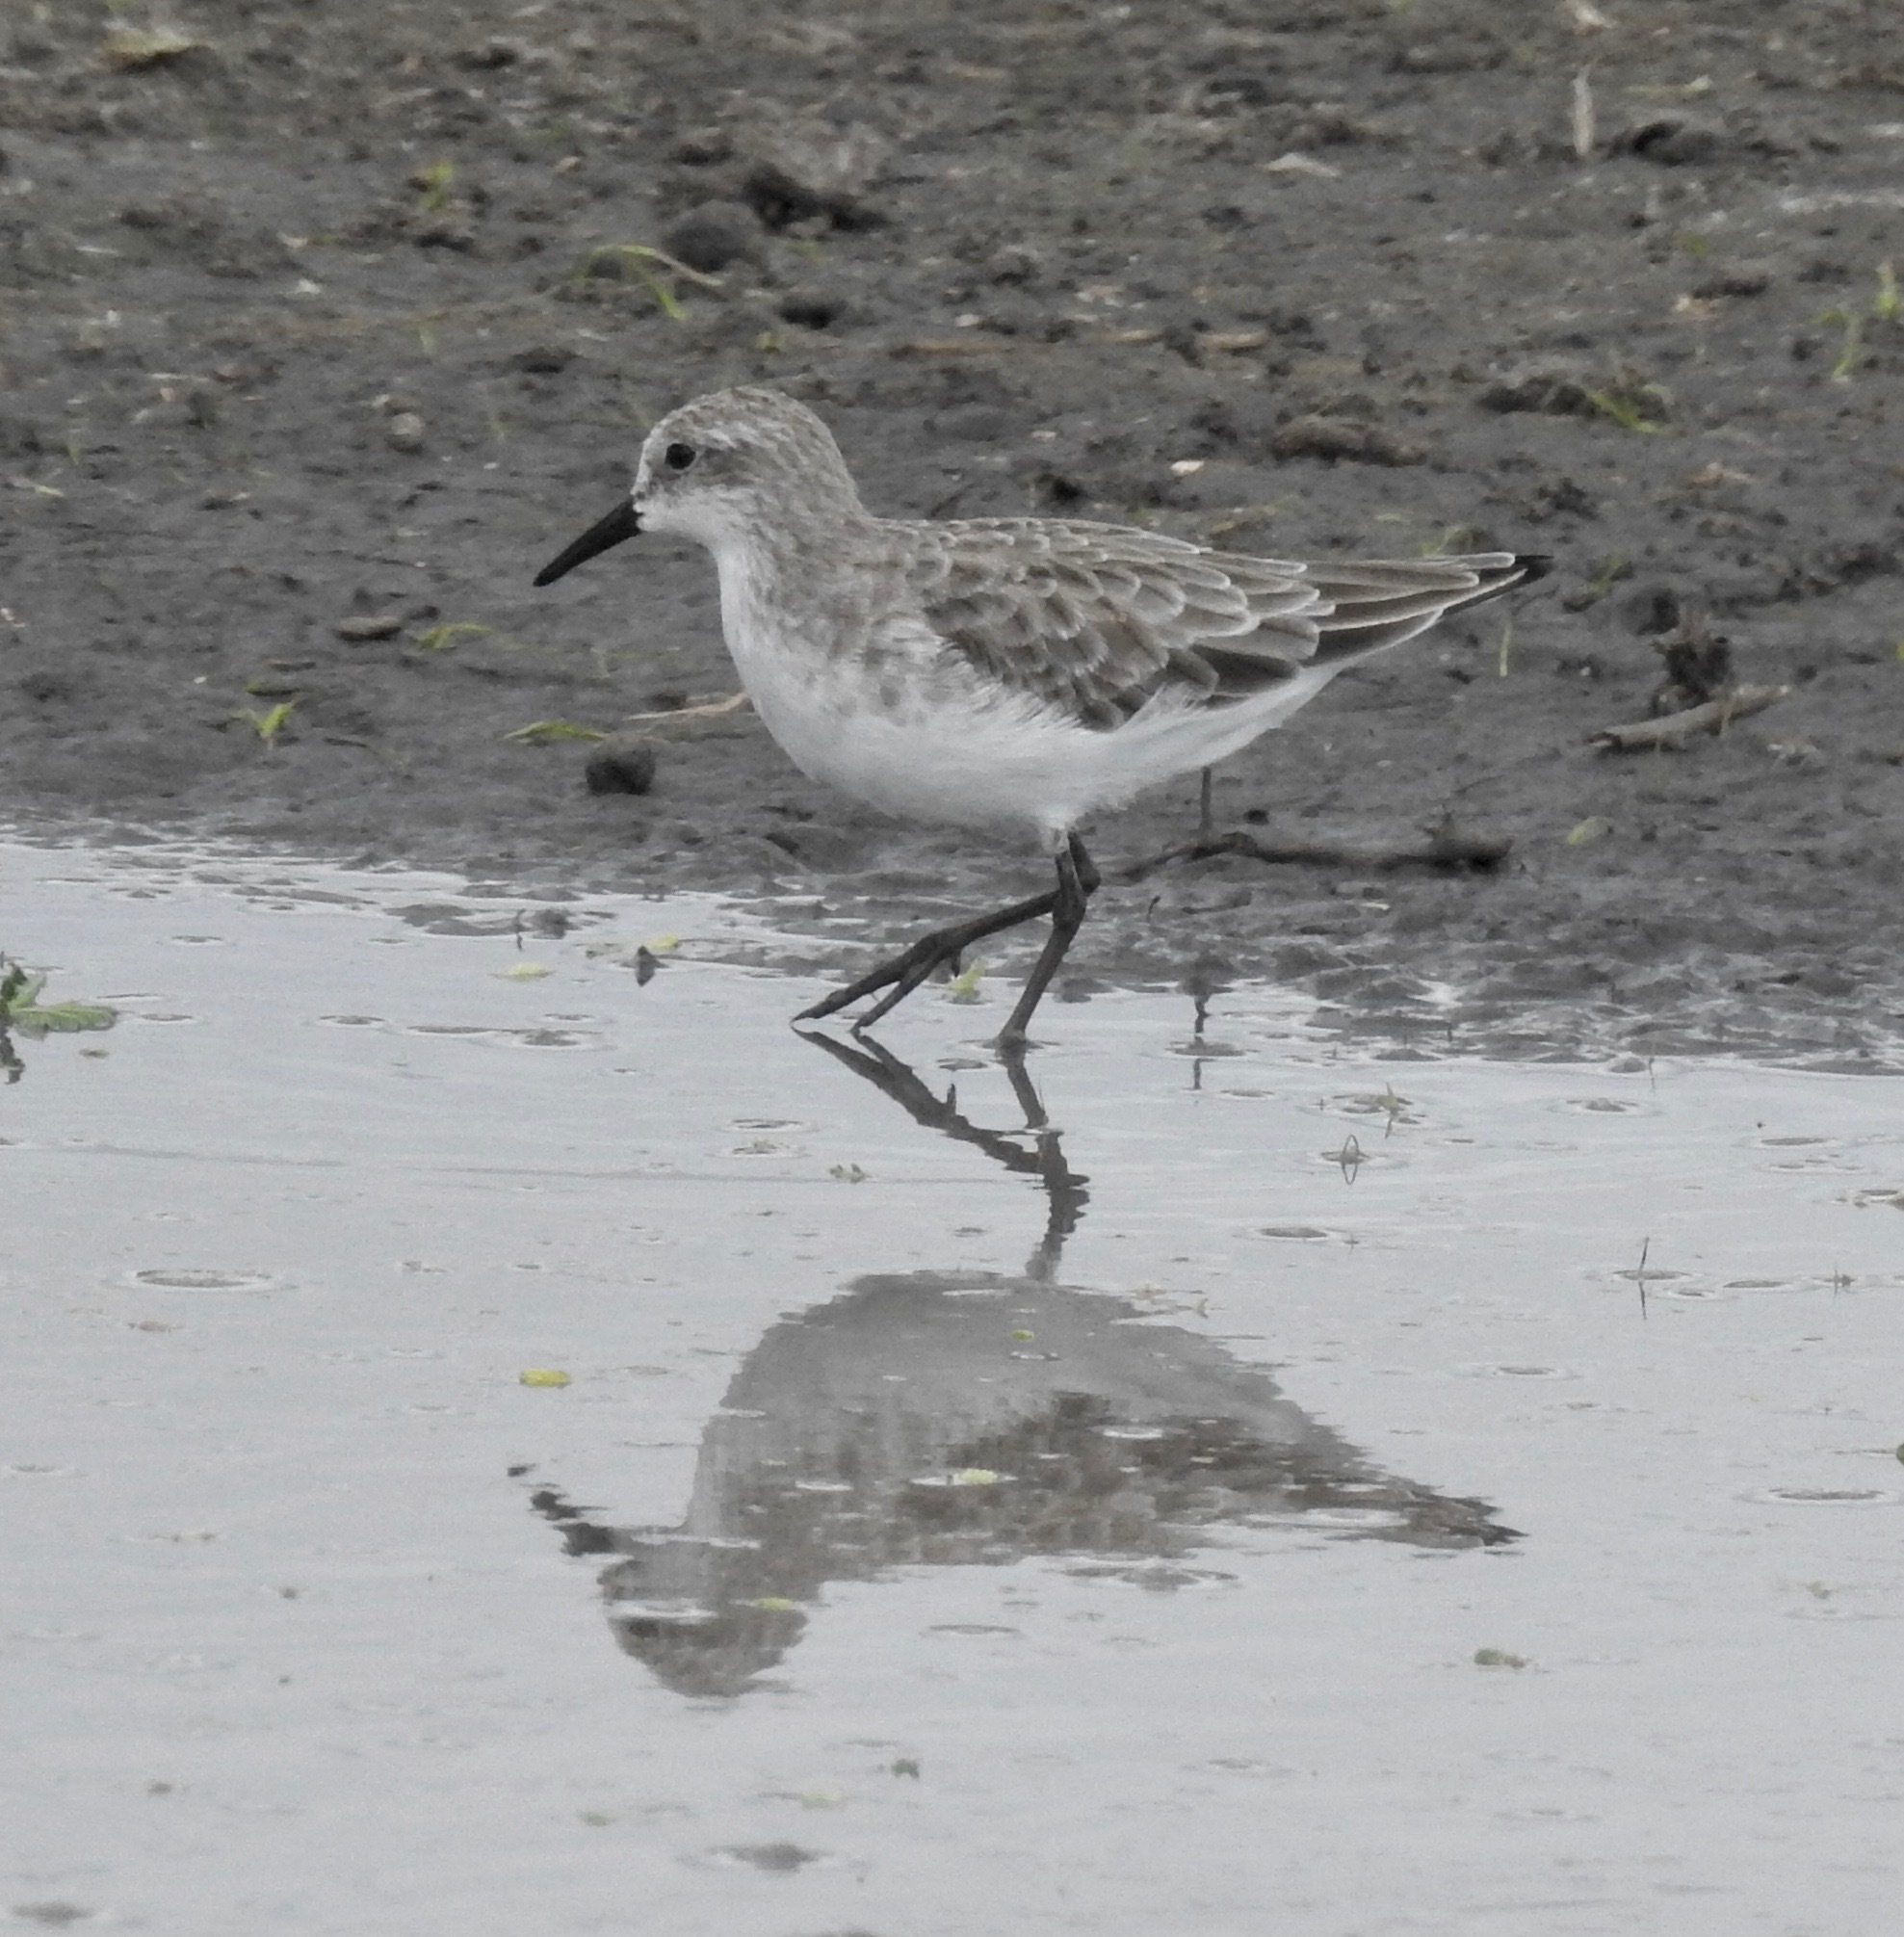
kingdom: Animalia
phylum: Chordata
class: Aves
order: Charadriiformes
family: Scolopacidae
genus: Calidris
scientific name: Calidris minuta
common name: Little stint
